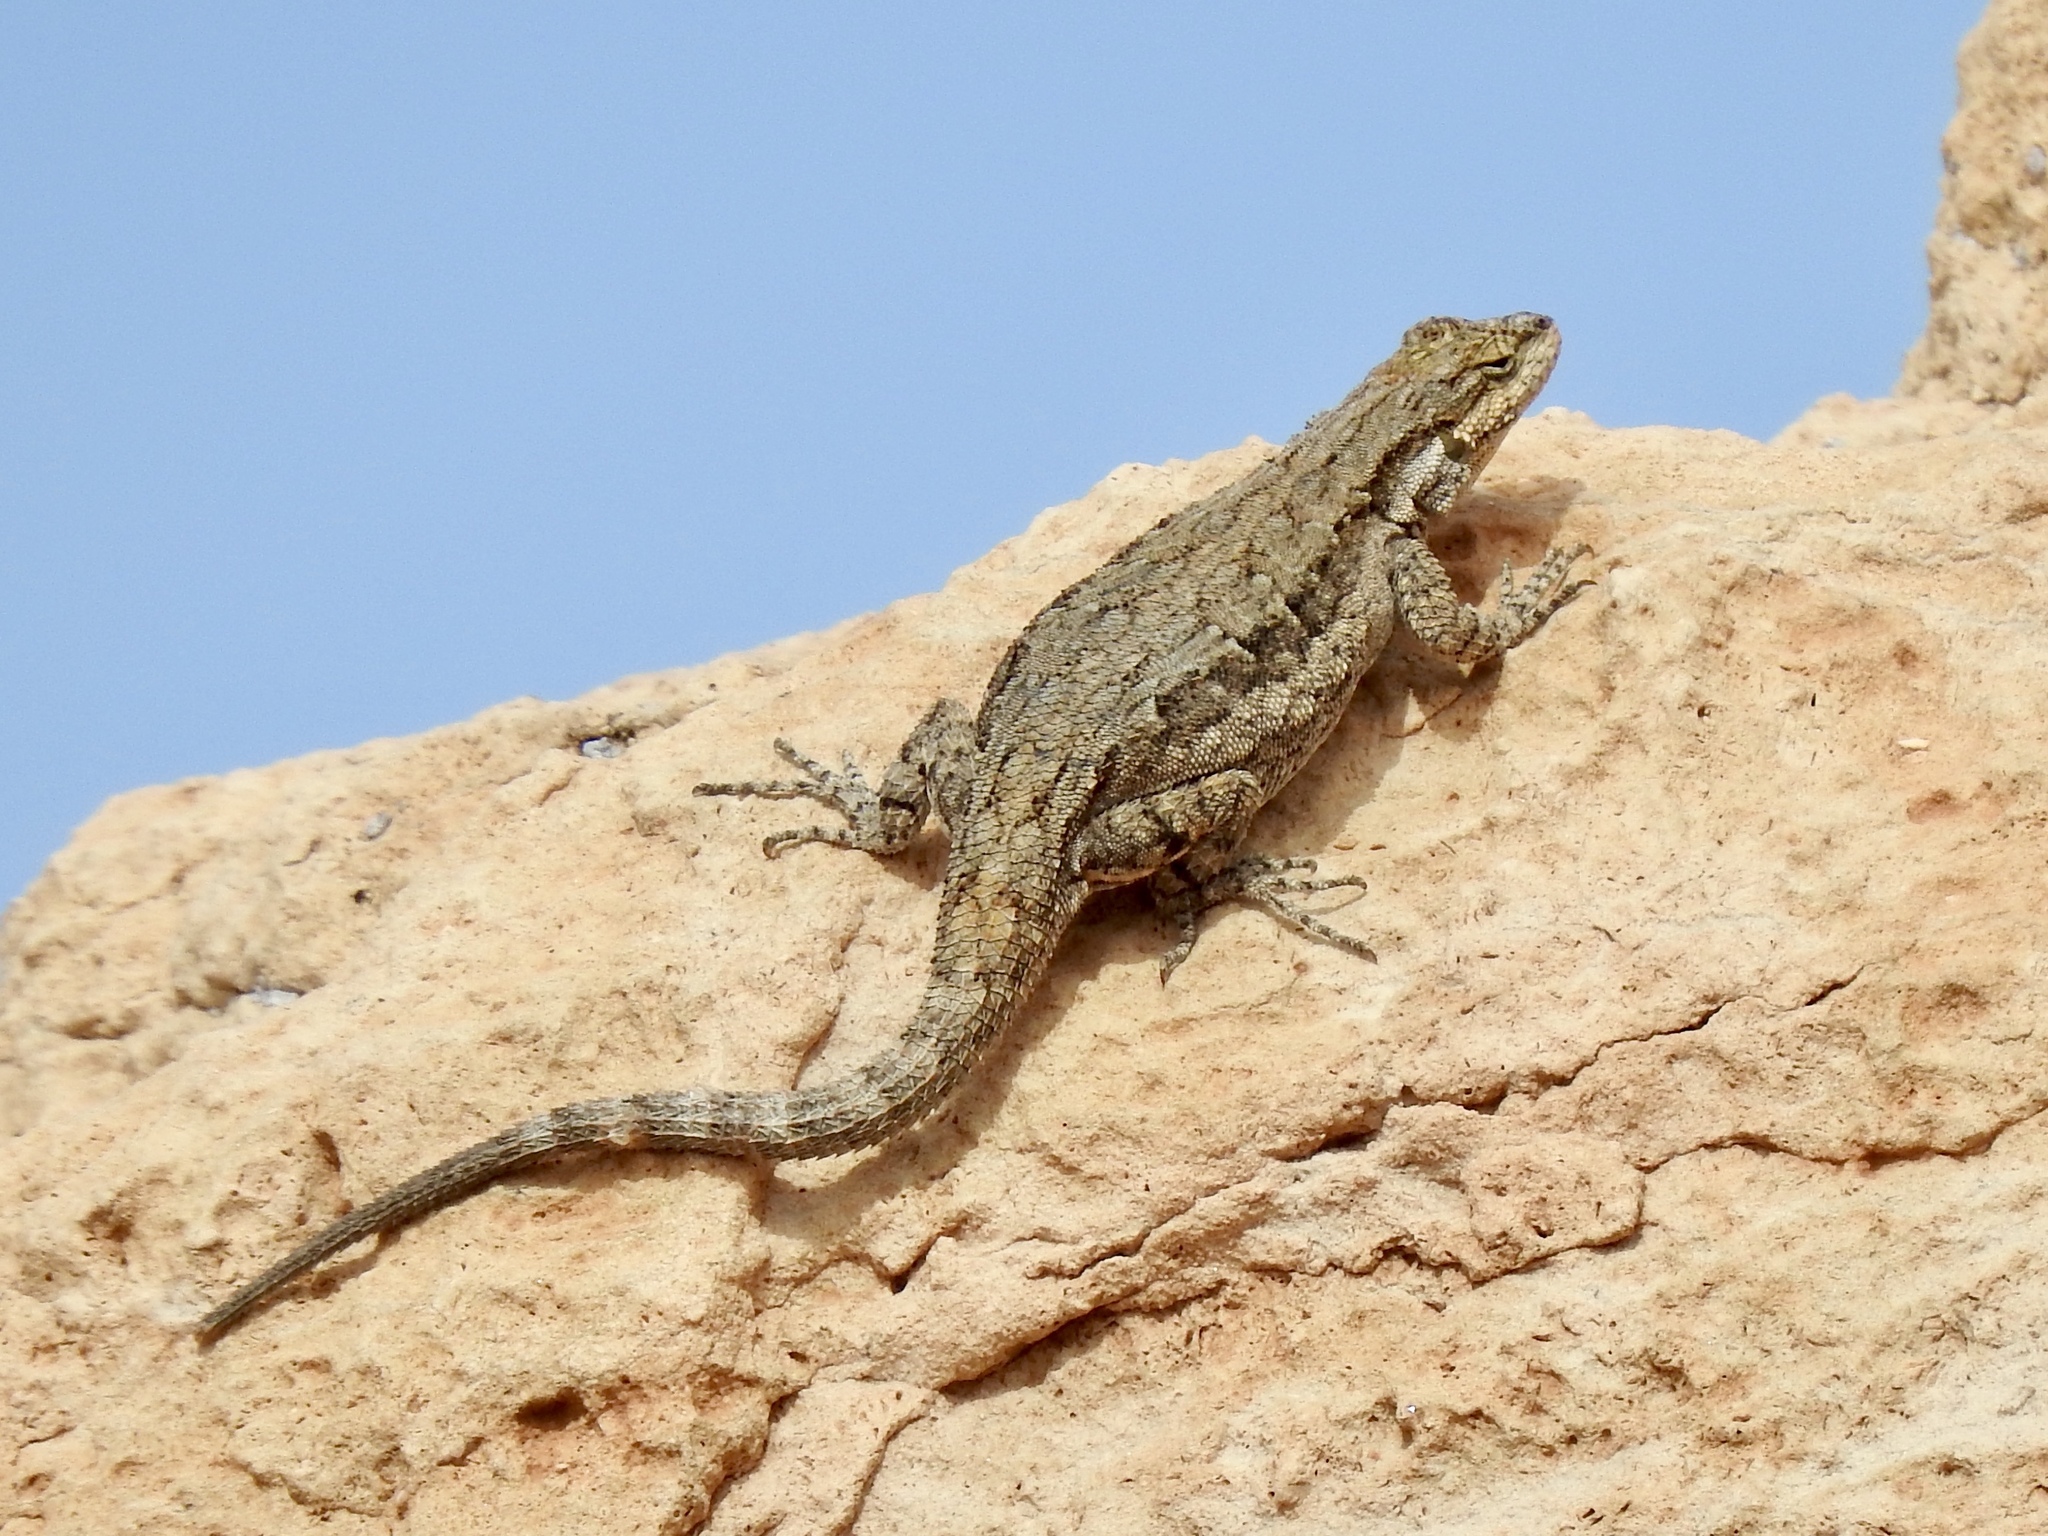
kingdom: Animalia
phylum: Chordata
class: Squamata
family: Phrynosomatidae
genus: Urosaurus
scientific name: Urosaurus ornatus
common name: Ornate tree lizard
